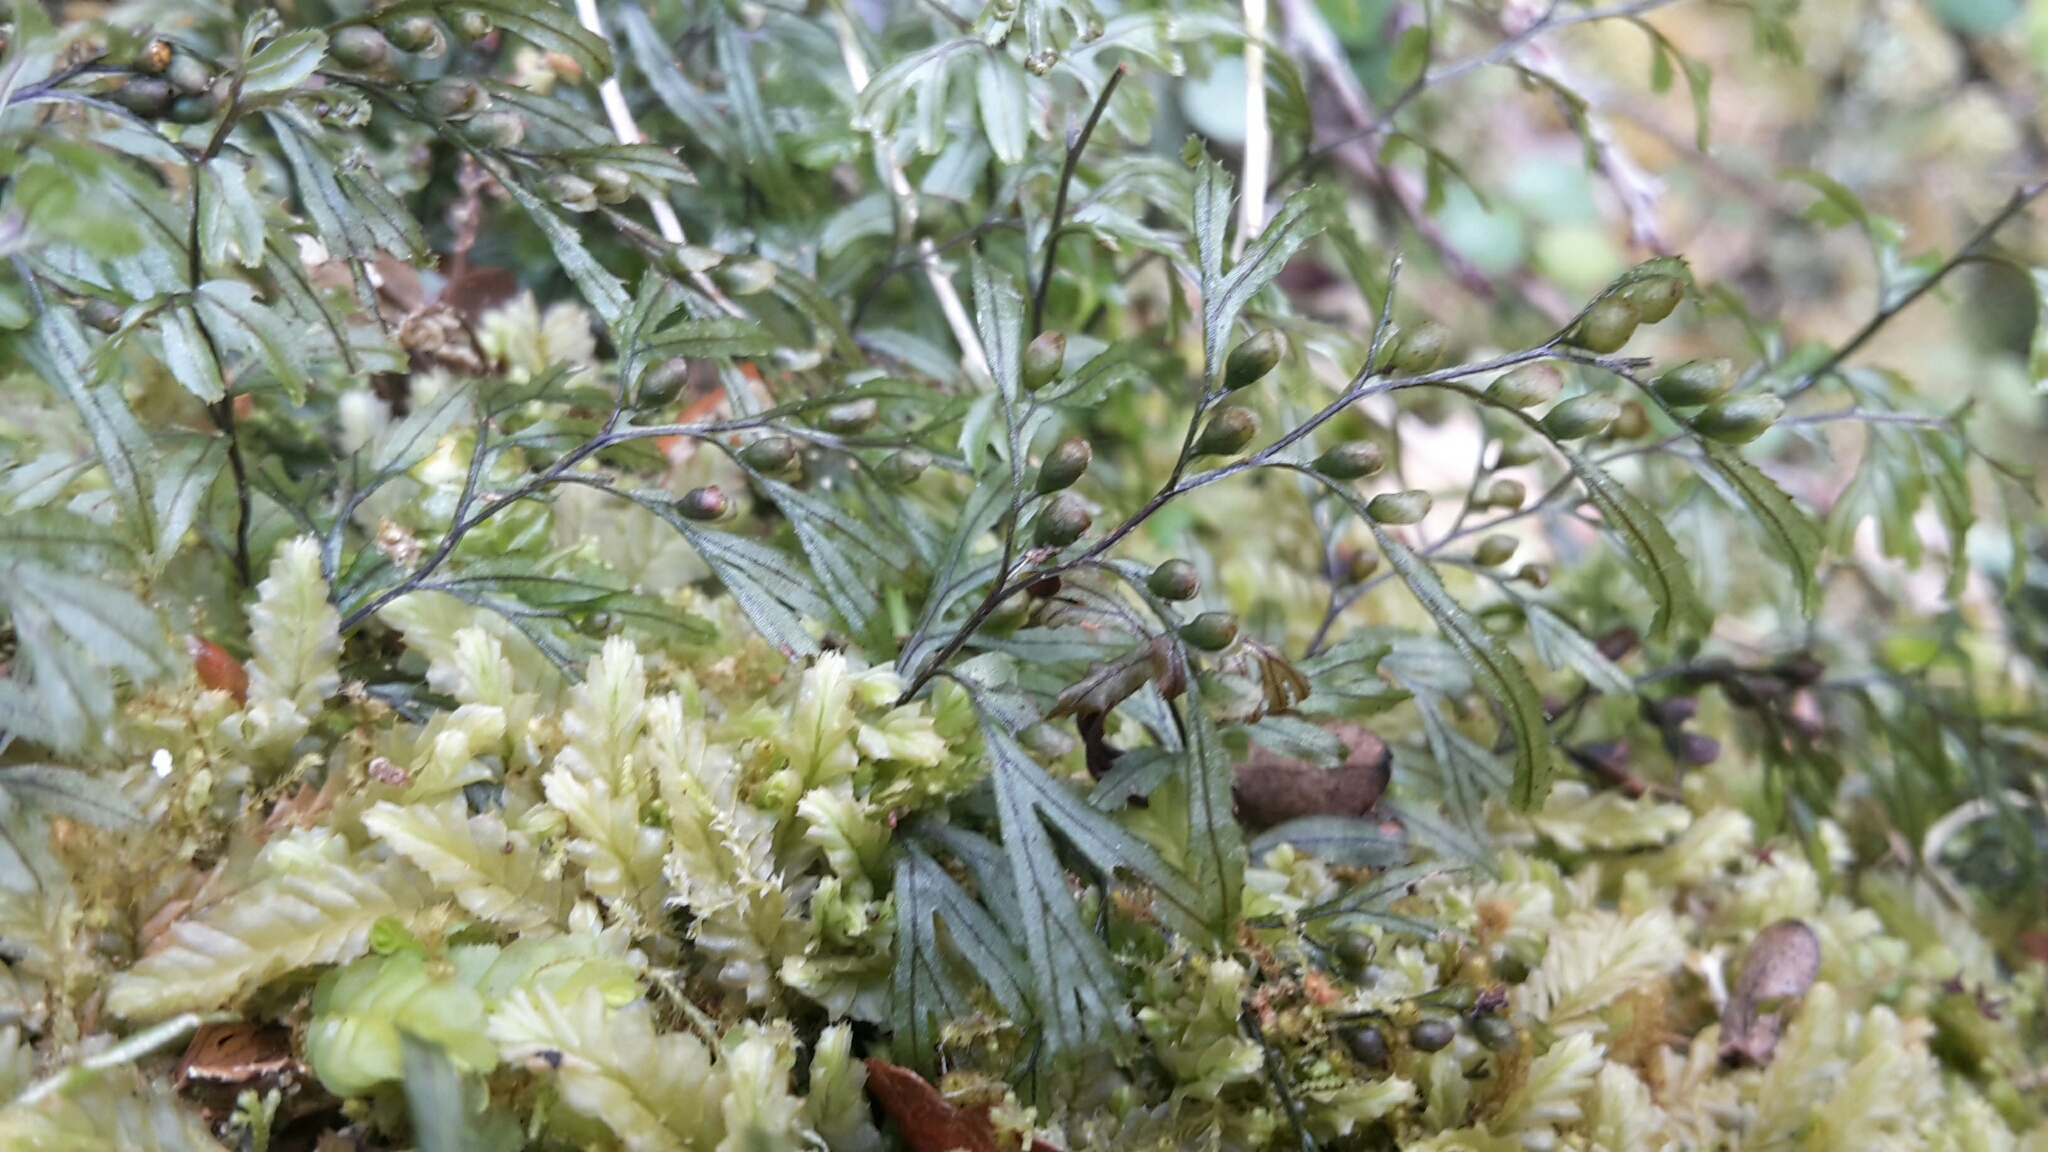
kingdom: Plantae
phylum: Tracheophyta
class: Polypodiopsida
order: Hymenophyllales
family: Hymenophyllaceae
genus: Hymenophyllum
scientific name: Hymenophyllum peltatum
